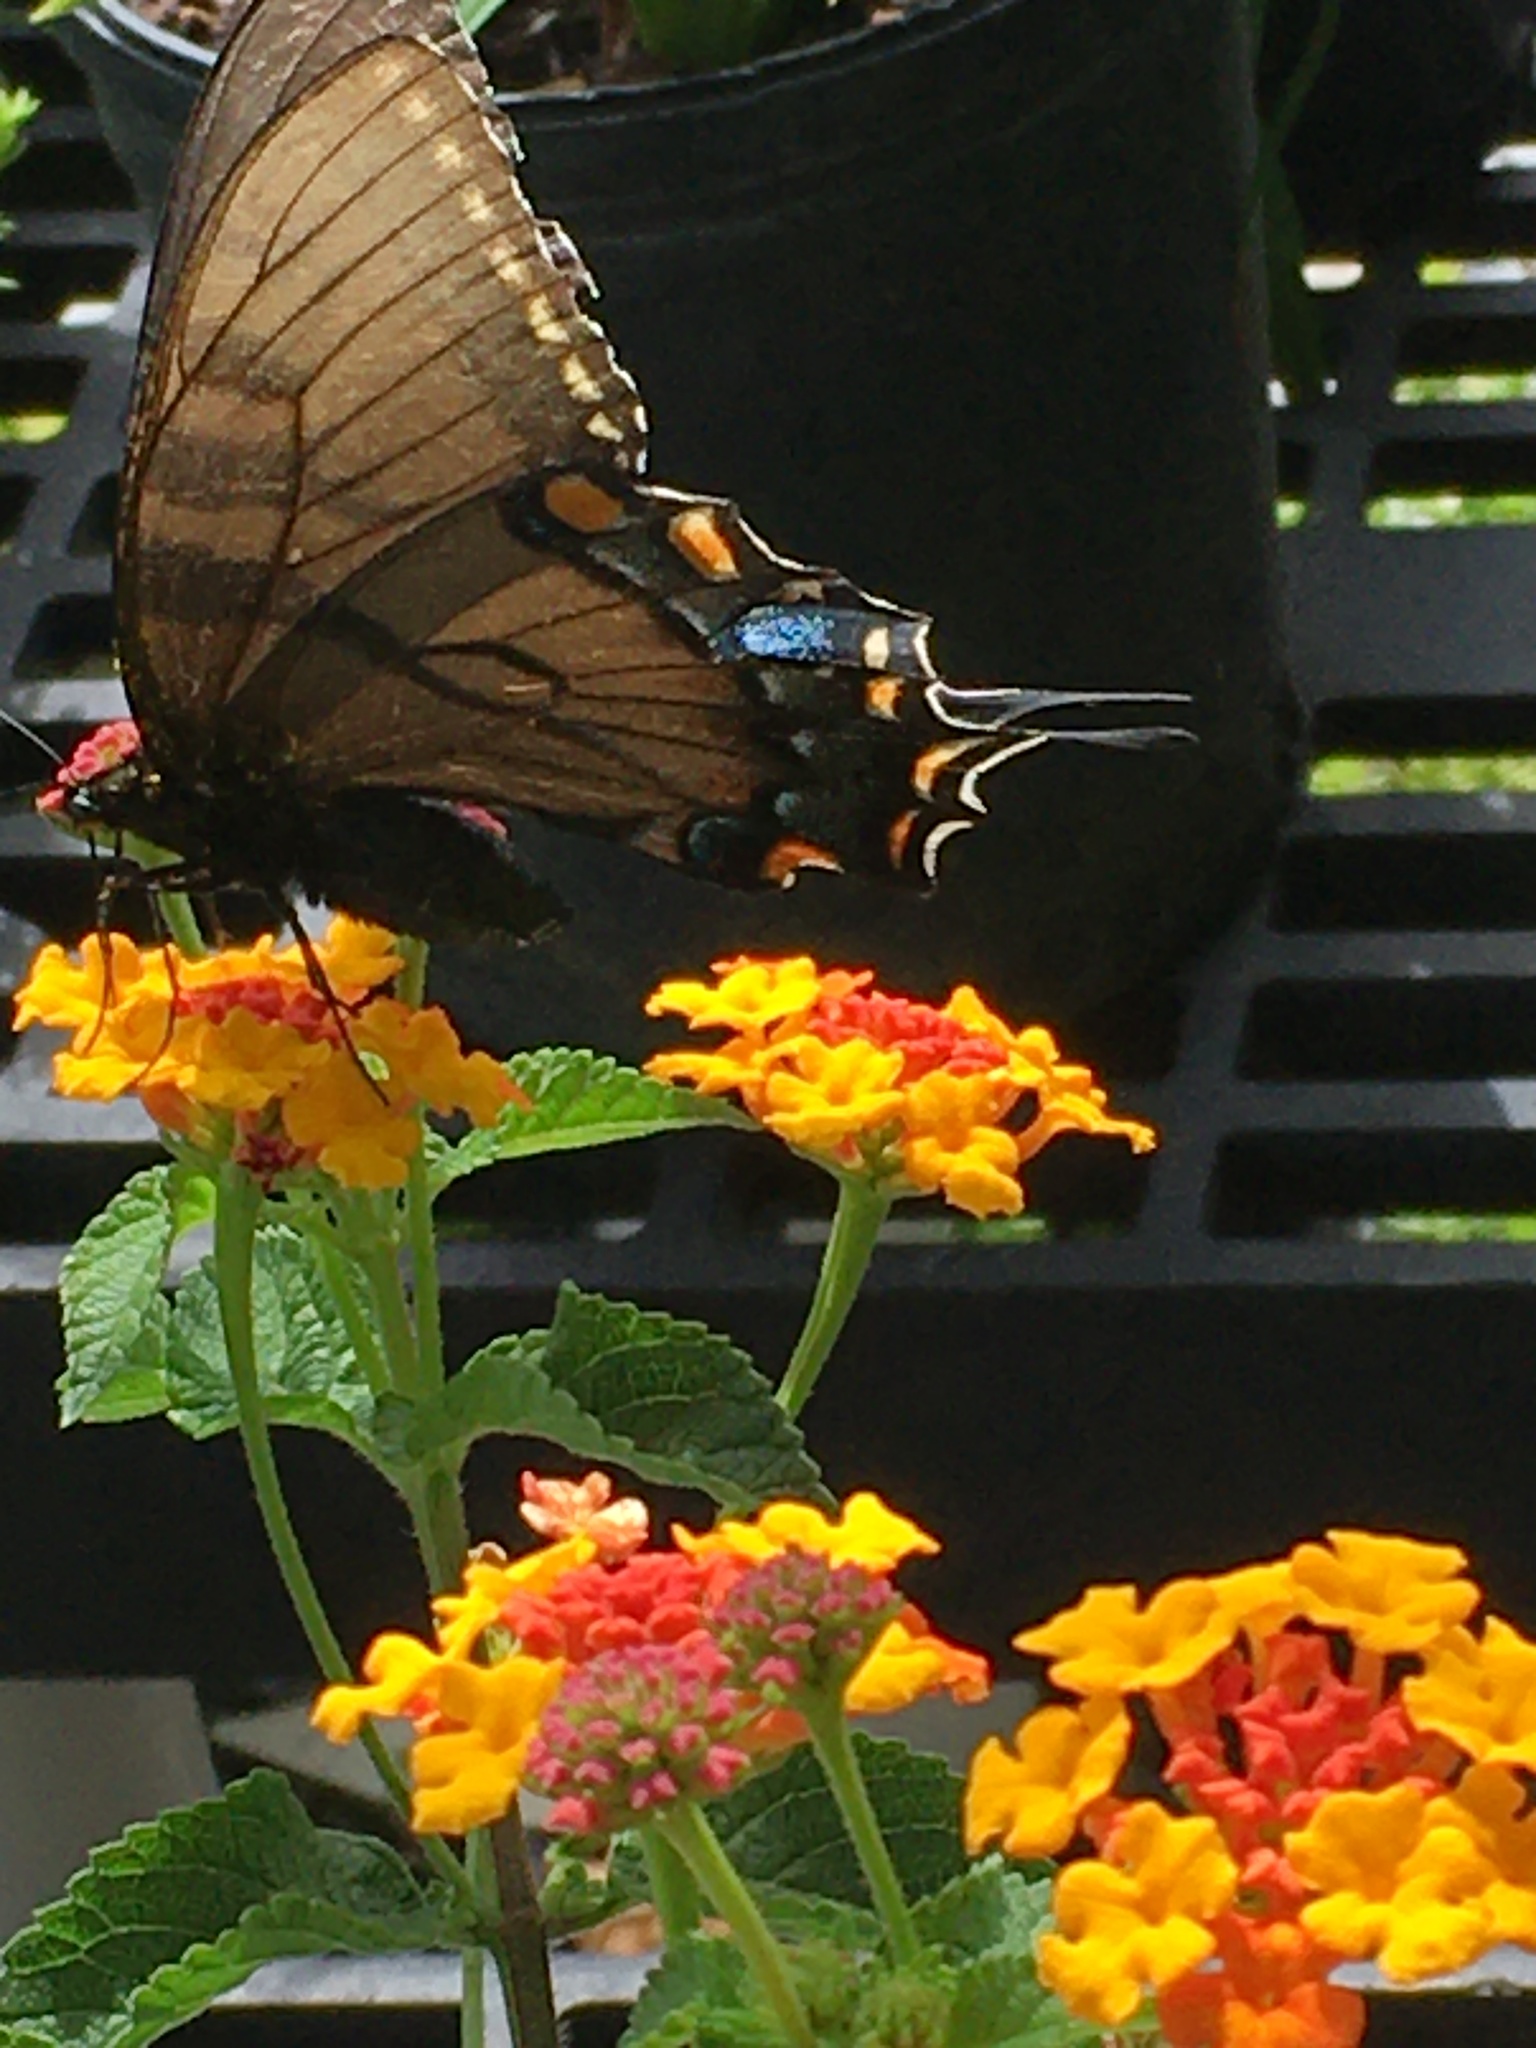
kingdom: Animalia
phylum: Arthropoda
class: Insecta
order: Lepidoptera
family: Papilionidae
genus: Papilio
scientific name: Papilio glaucus
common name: Tiger swallowtail
